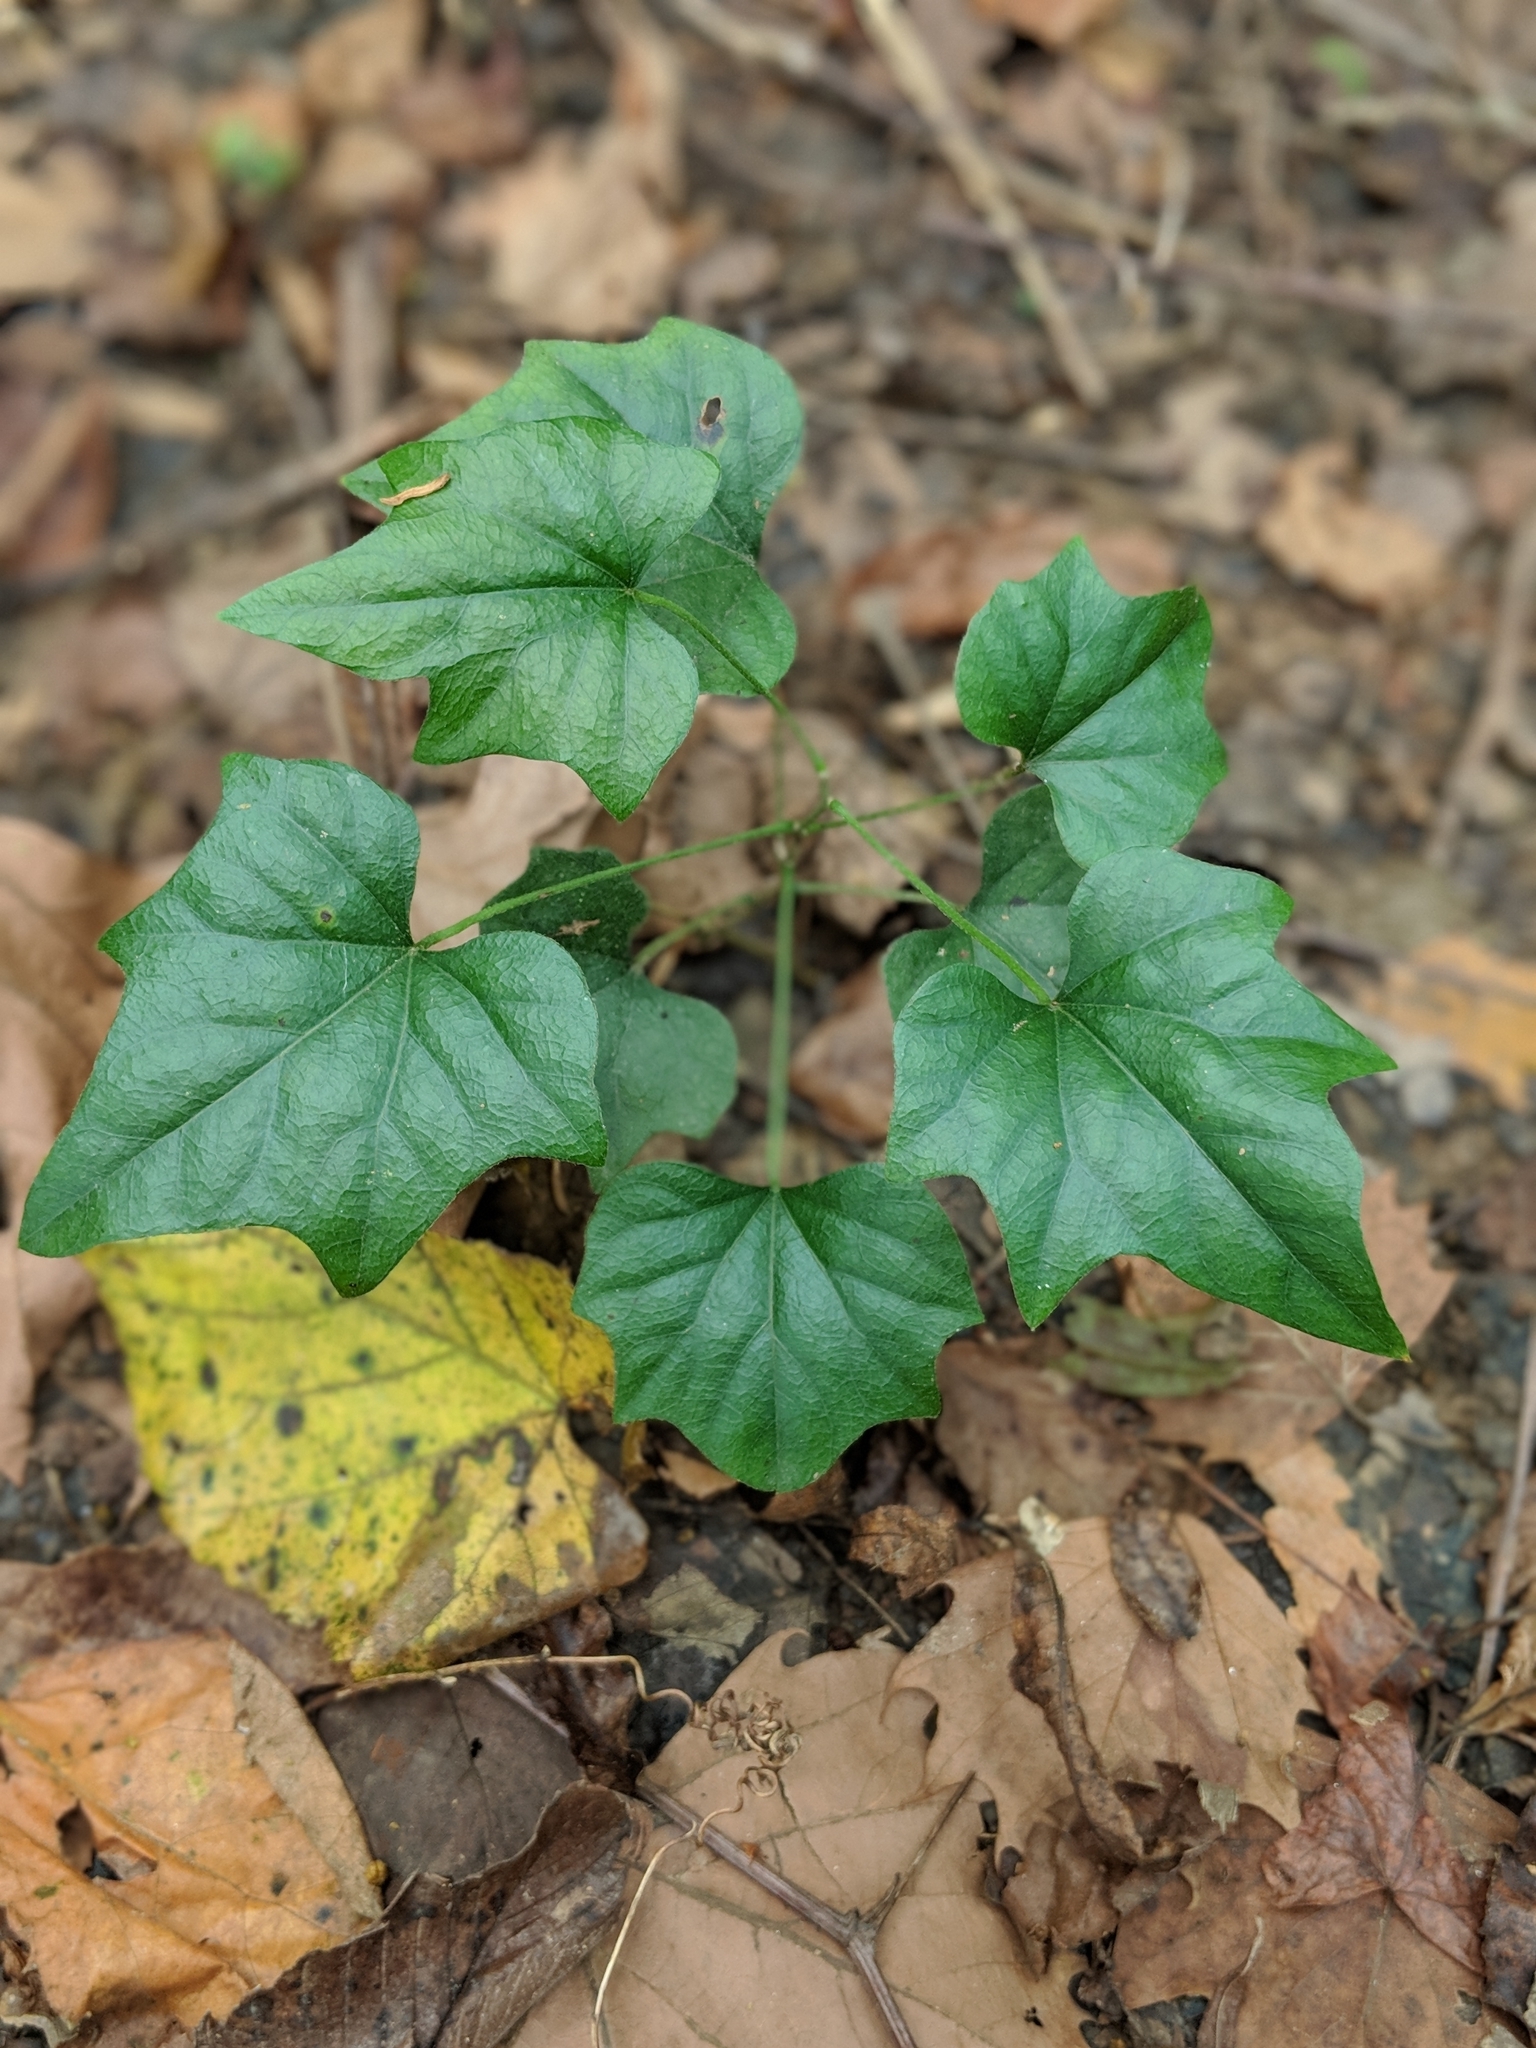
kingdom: Plantae
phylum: Tracheophyta
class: Magnoliopsida
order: Ranunculales
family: Menispermaceae
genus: Cocculus
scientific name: Cocculus carolinus
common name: Carolina moonseed
